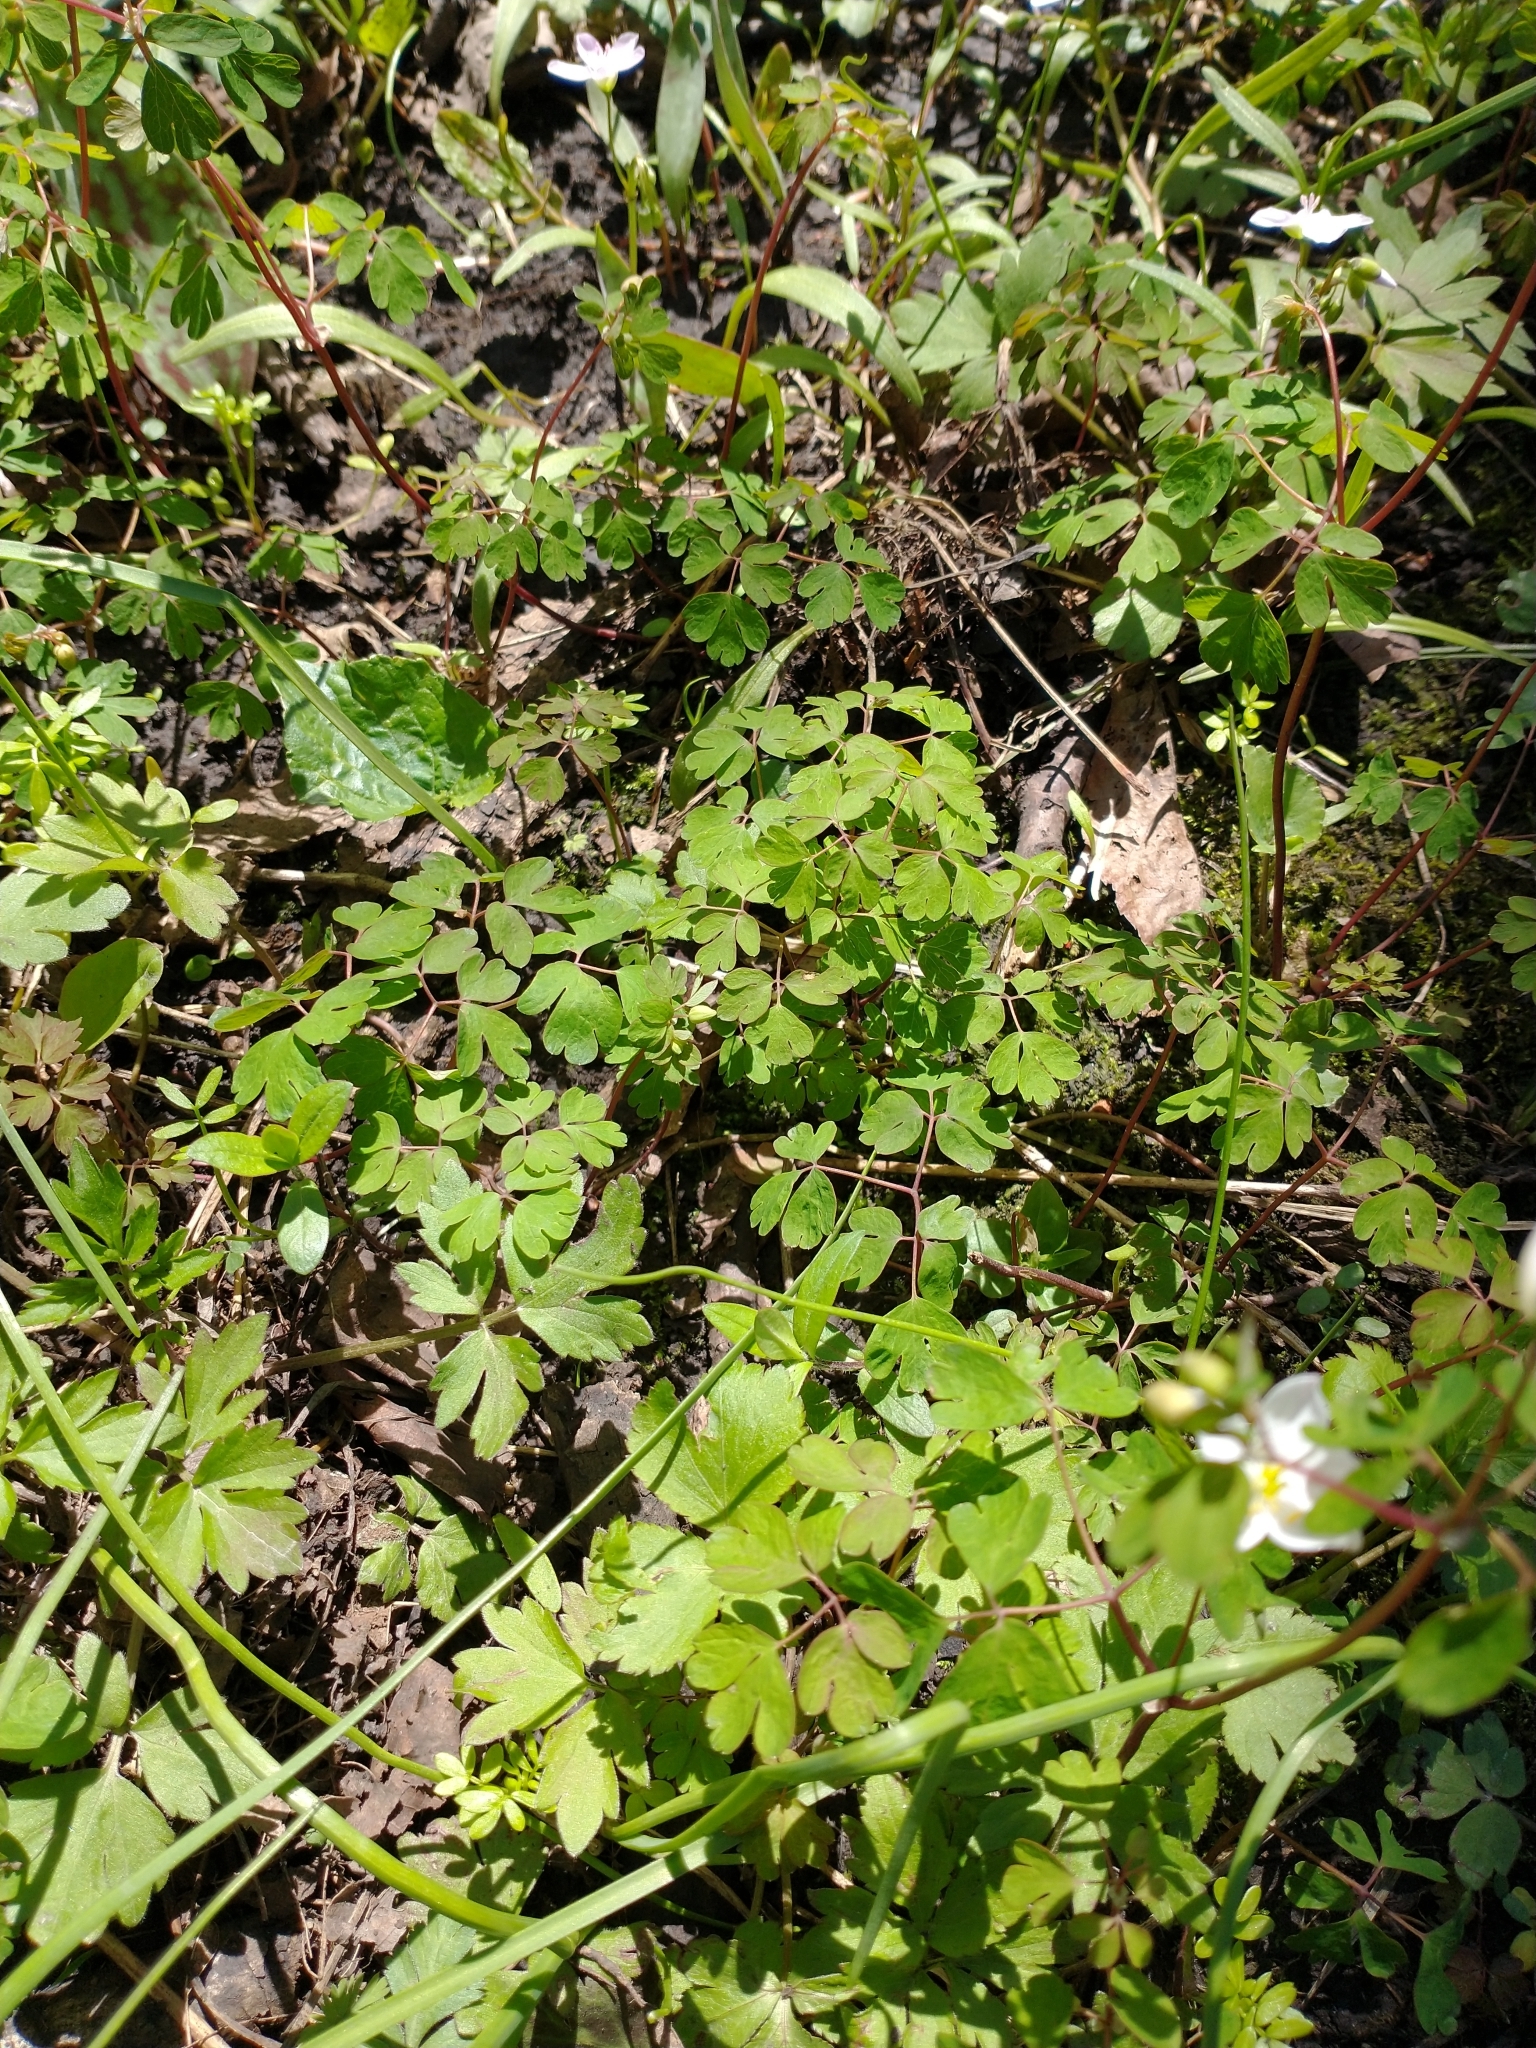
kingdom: Plantae
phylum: Tracheophyta
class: Magnoliopsida
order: Ranunculales
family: Ranunculaceae
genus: Enemion
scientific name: Enemion biternatum
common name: Eastern false rue-anemone
